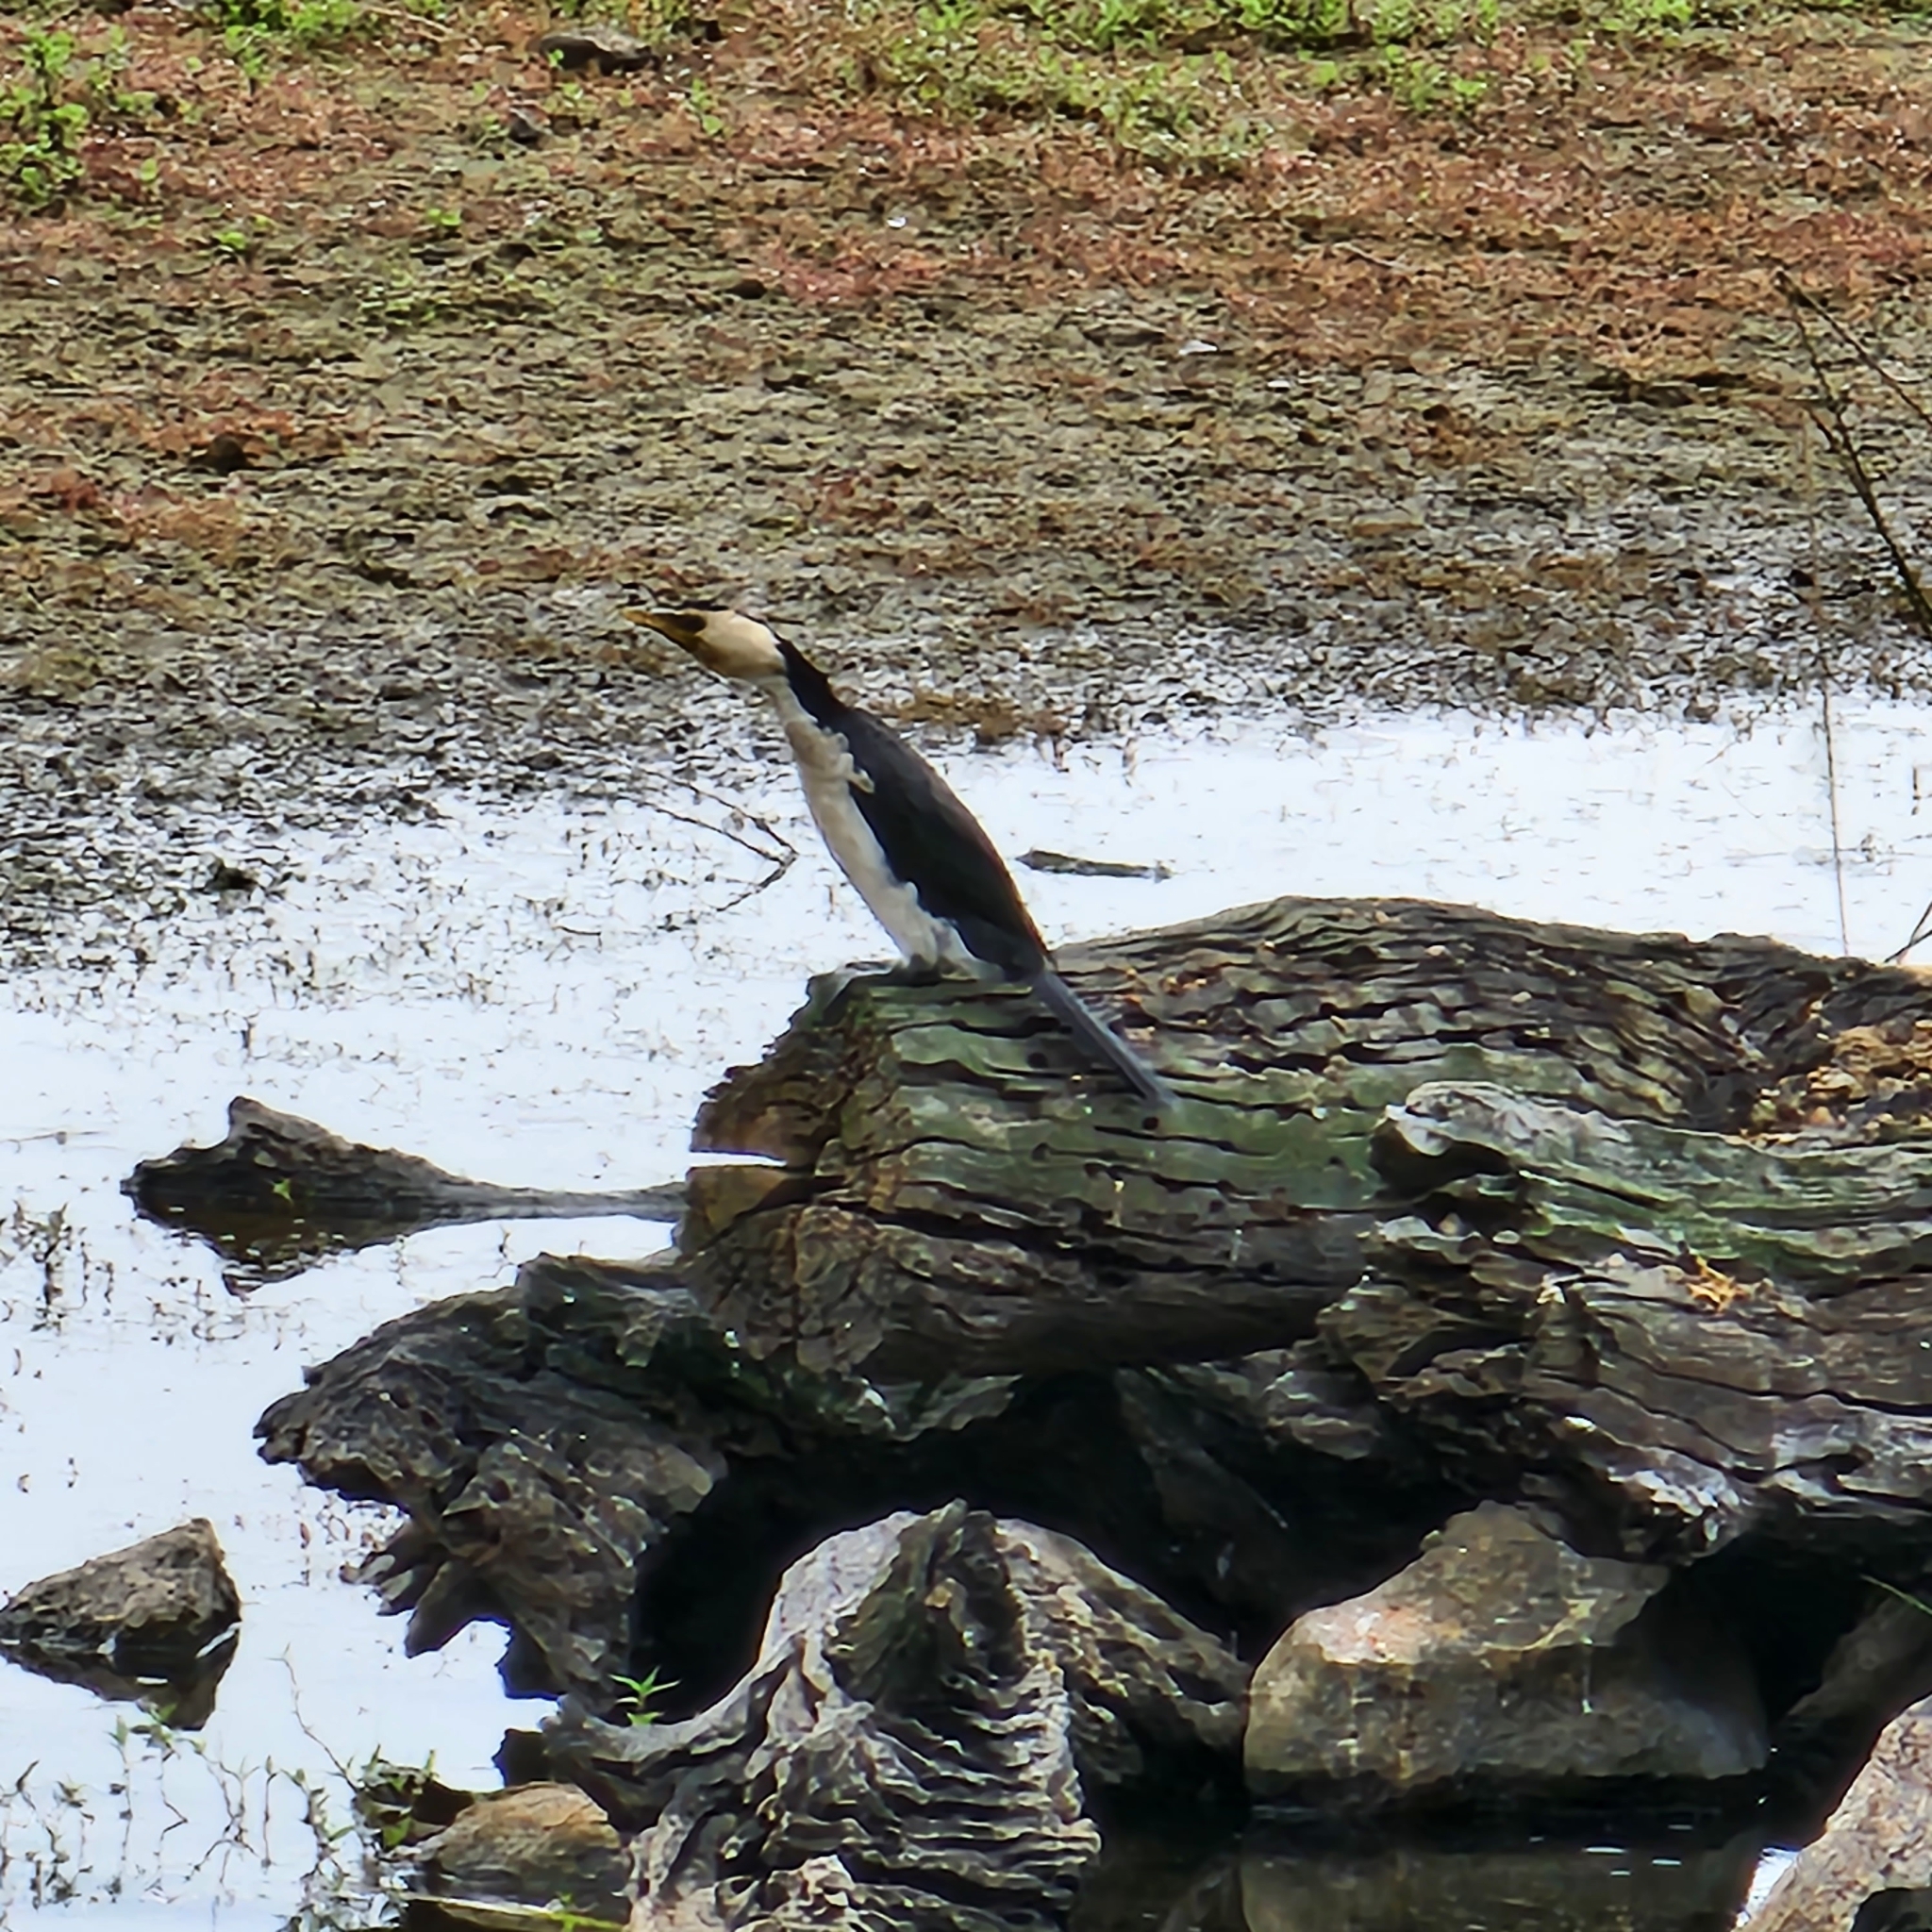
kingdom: Animalia
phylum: Chordata
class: Aves
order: Suliformes
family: Phalacrocoracidae
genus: Microcarbo
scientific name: Microcarbo melanoleucos
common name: Little pied cormorant
